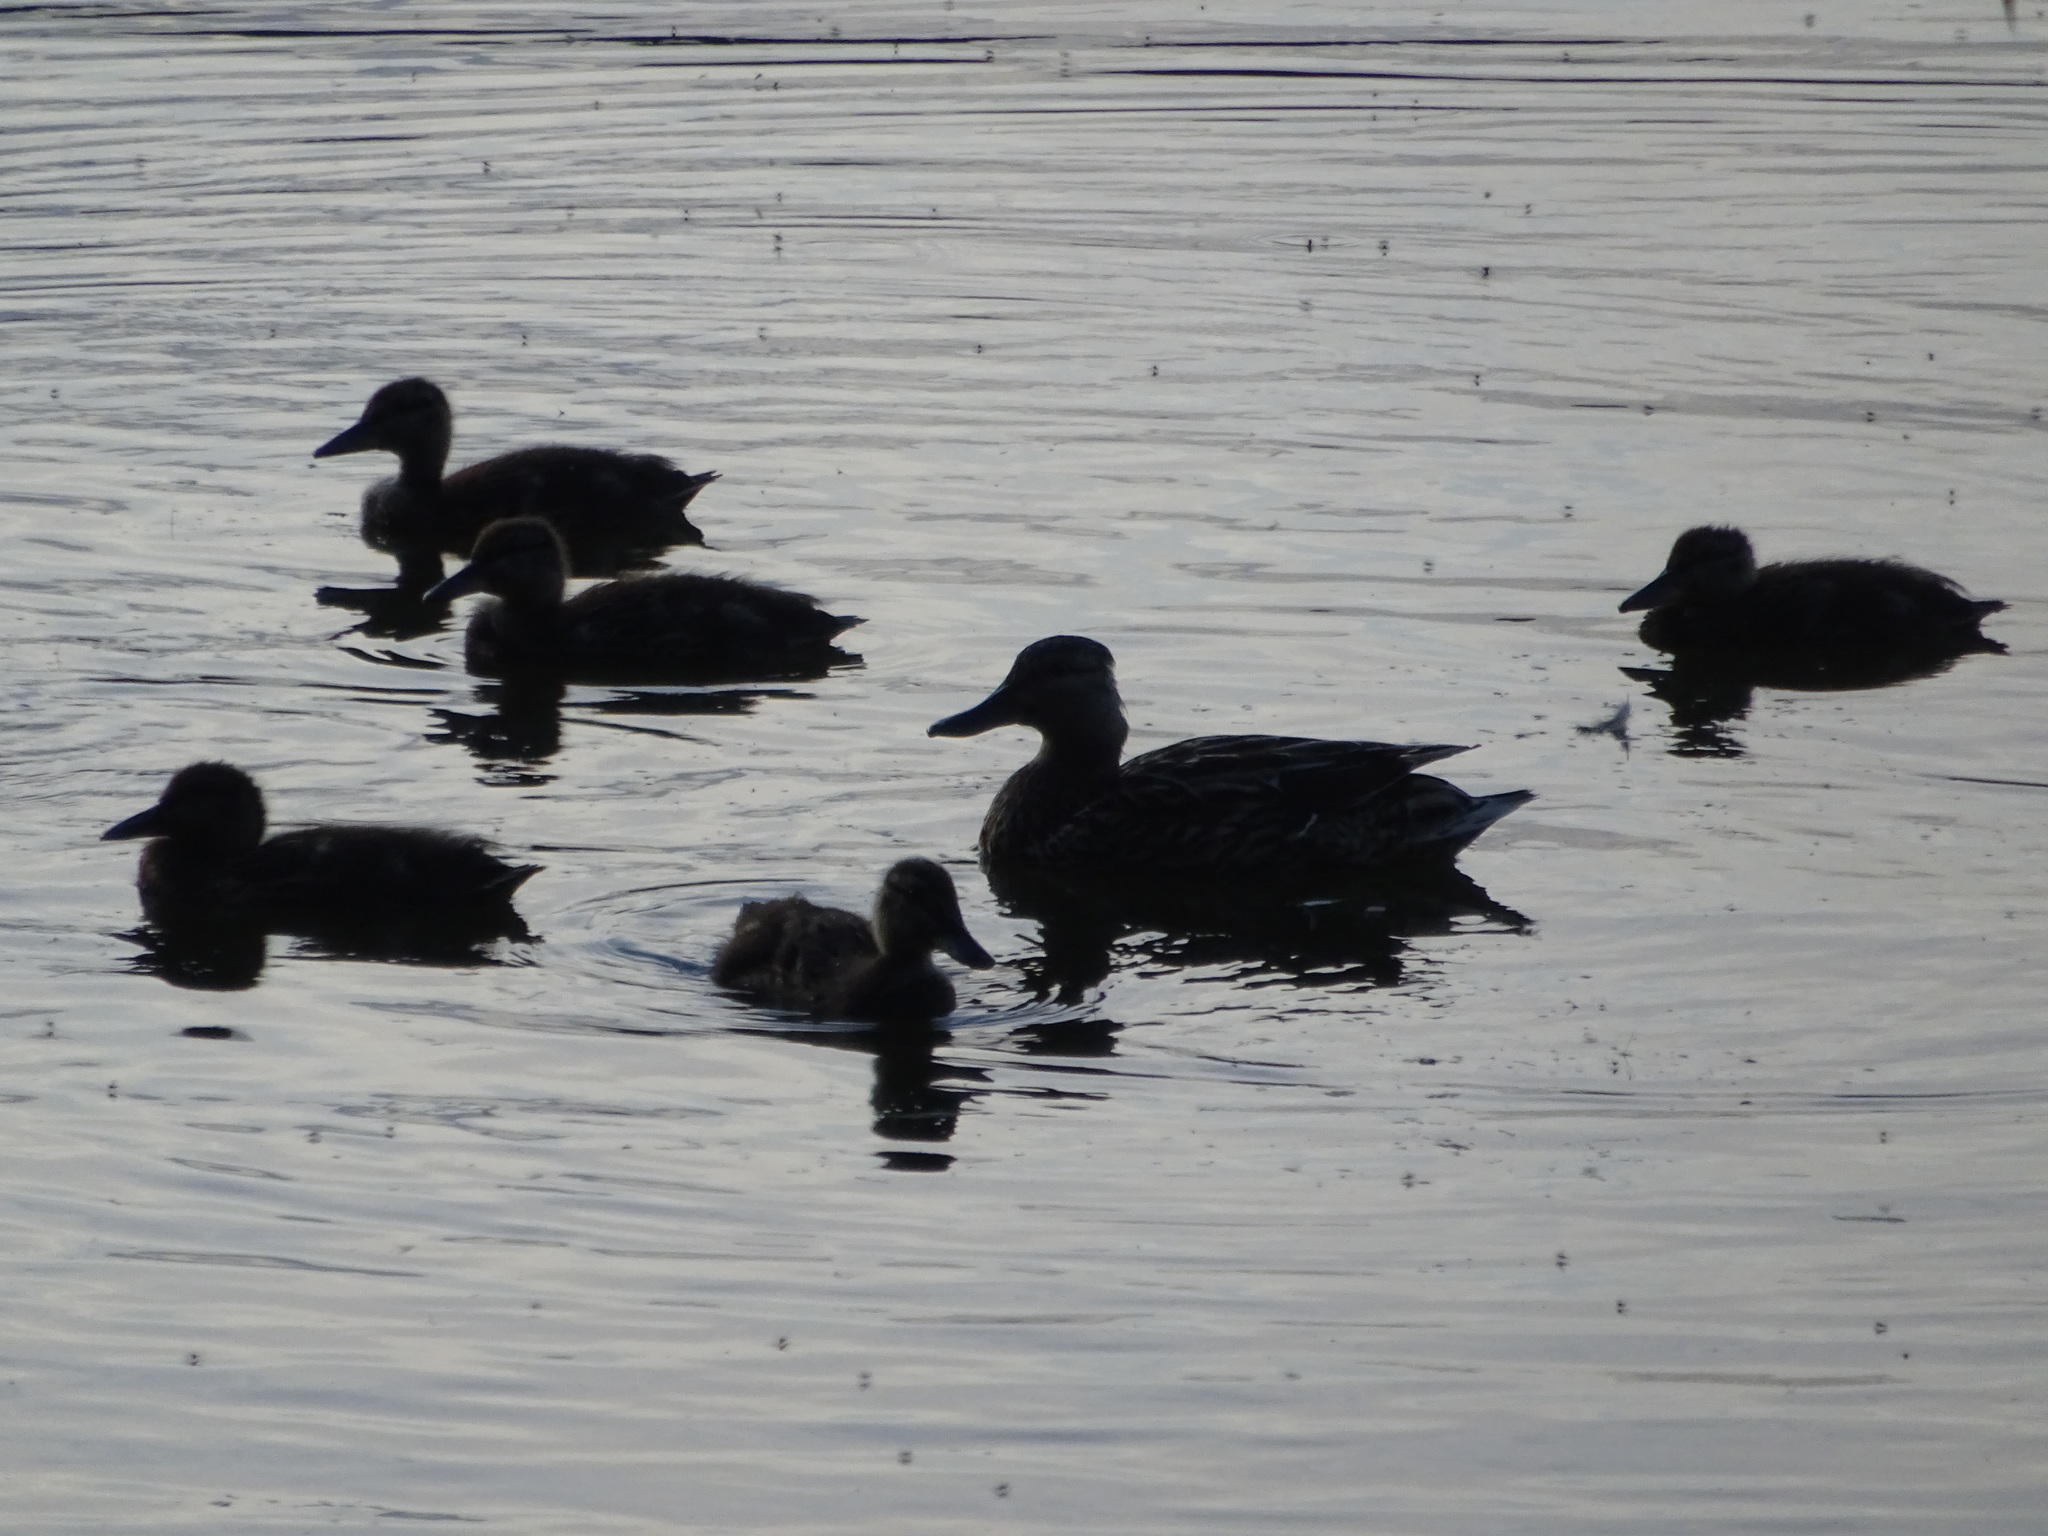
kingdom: Animalia
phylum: Chordata
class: Aves
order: Anseriformes
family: Anatidae
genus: Anas
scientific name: Anas platyrhynchos
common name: Mallard
